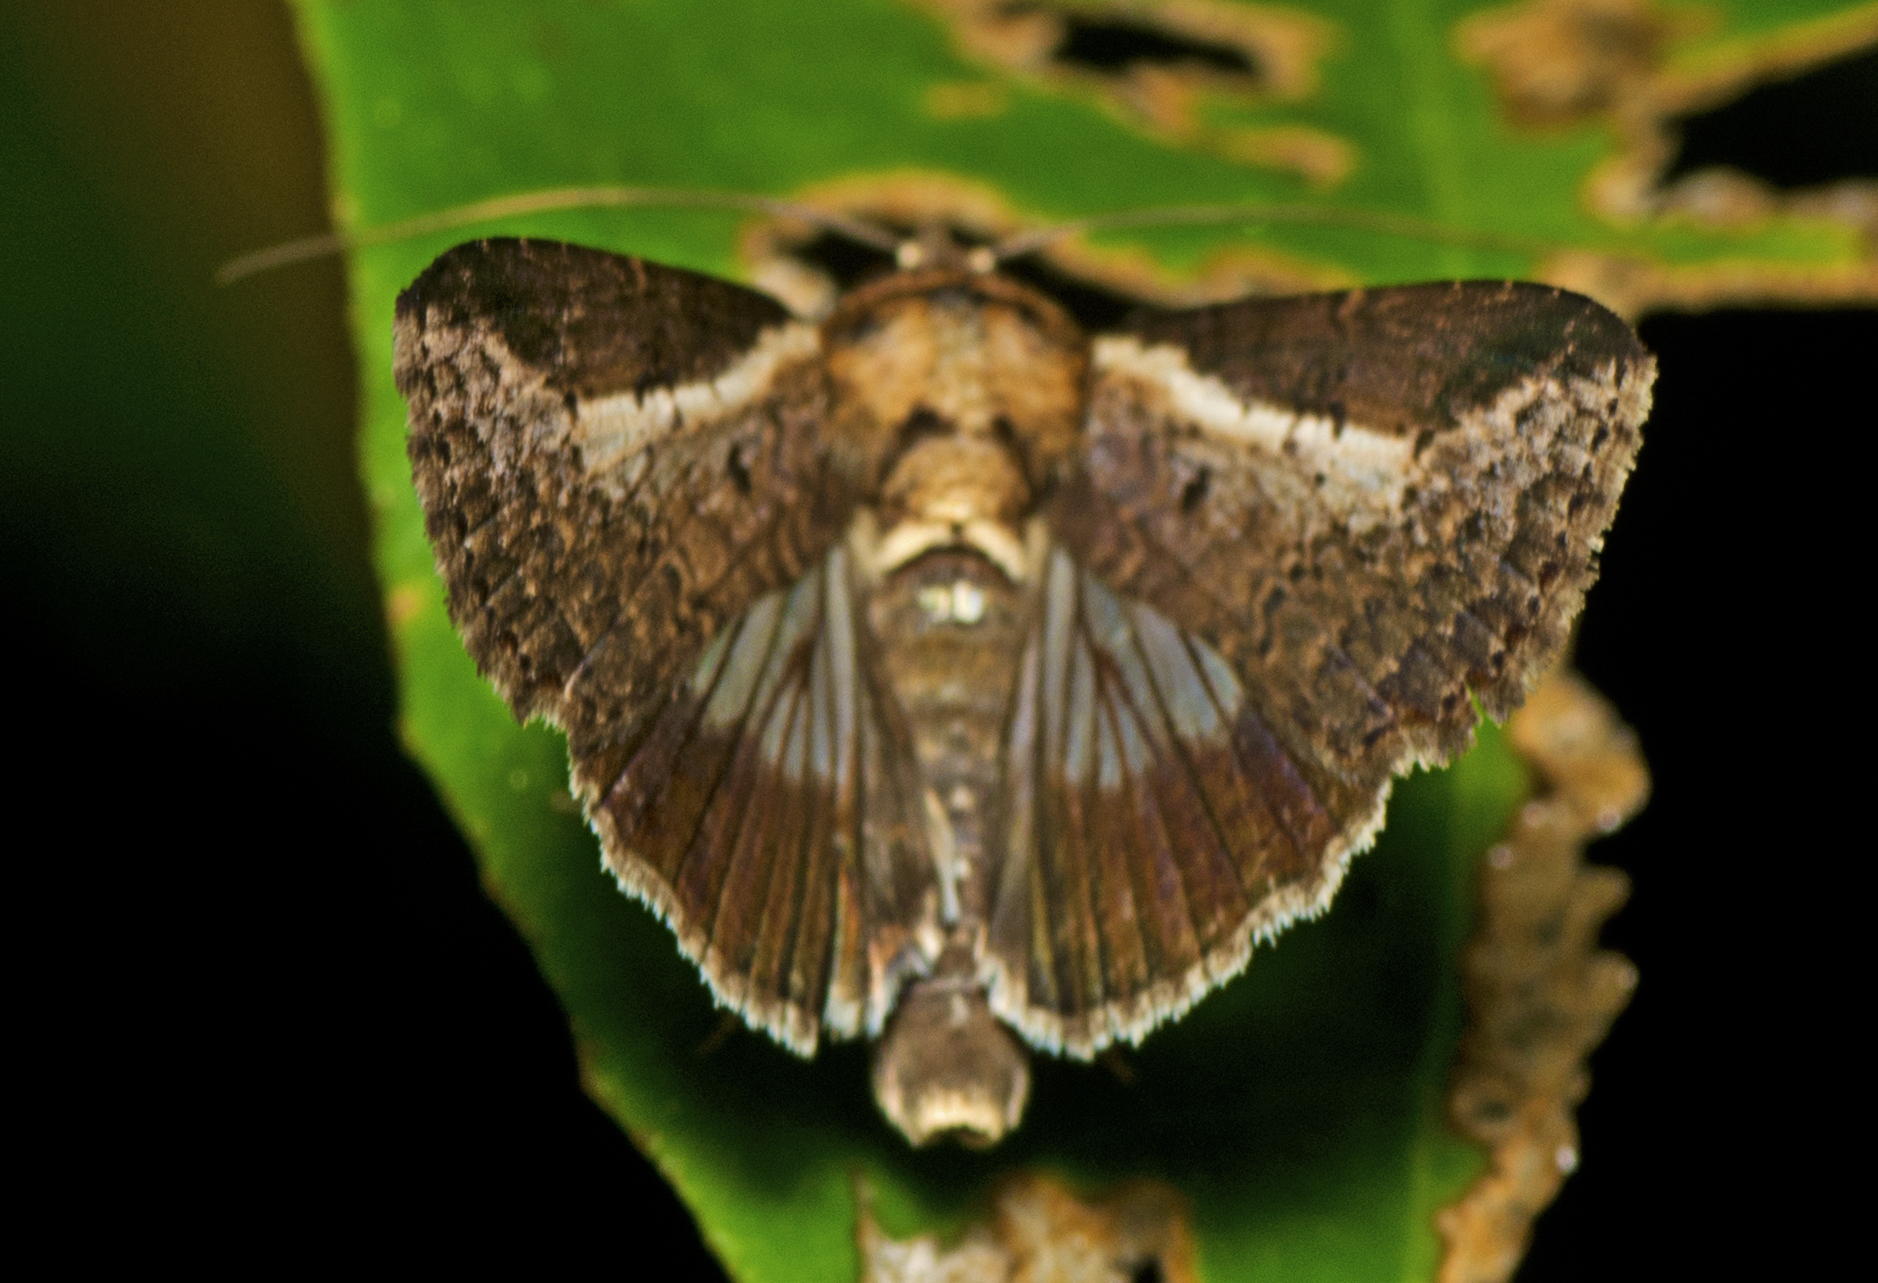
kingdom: Animalia
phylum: Arthropoda
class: Insecta
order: Lepidoptera
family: Euteliidae
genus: Lophoptera
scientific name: Lophoptera vittigera
